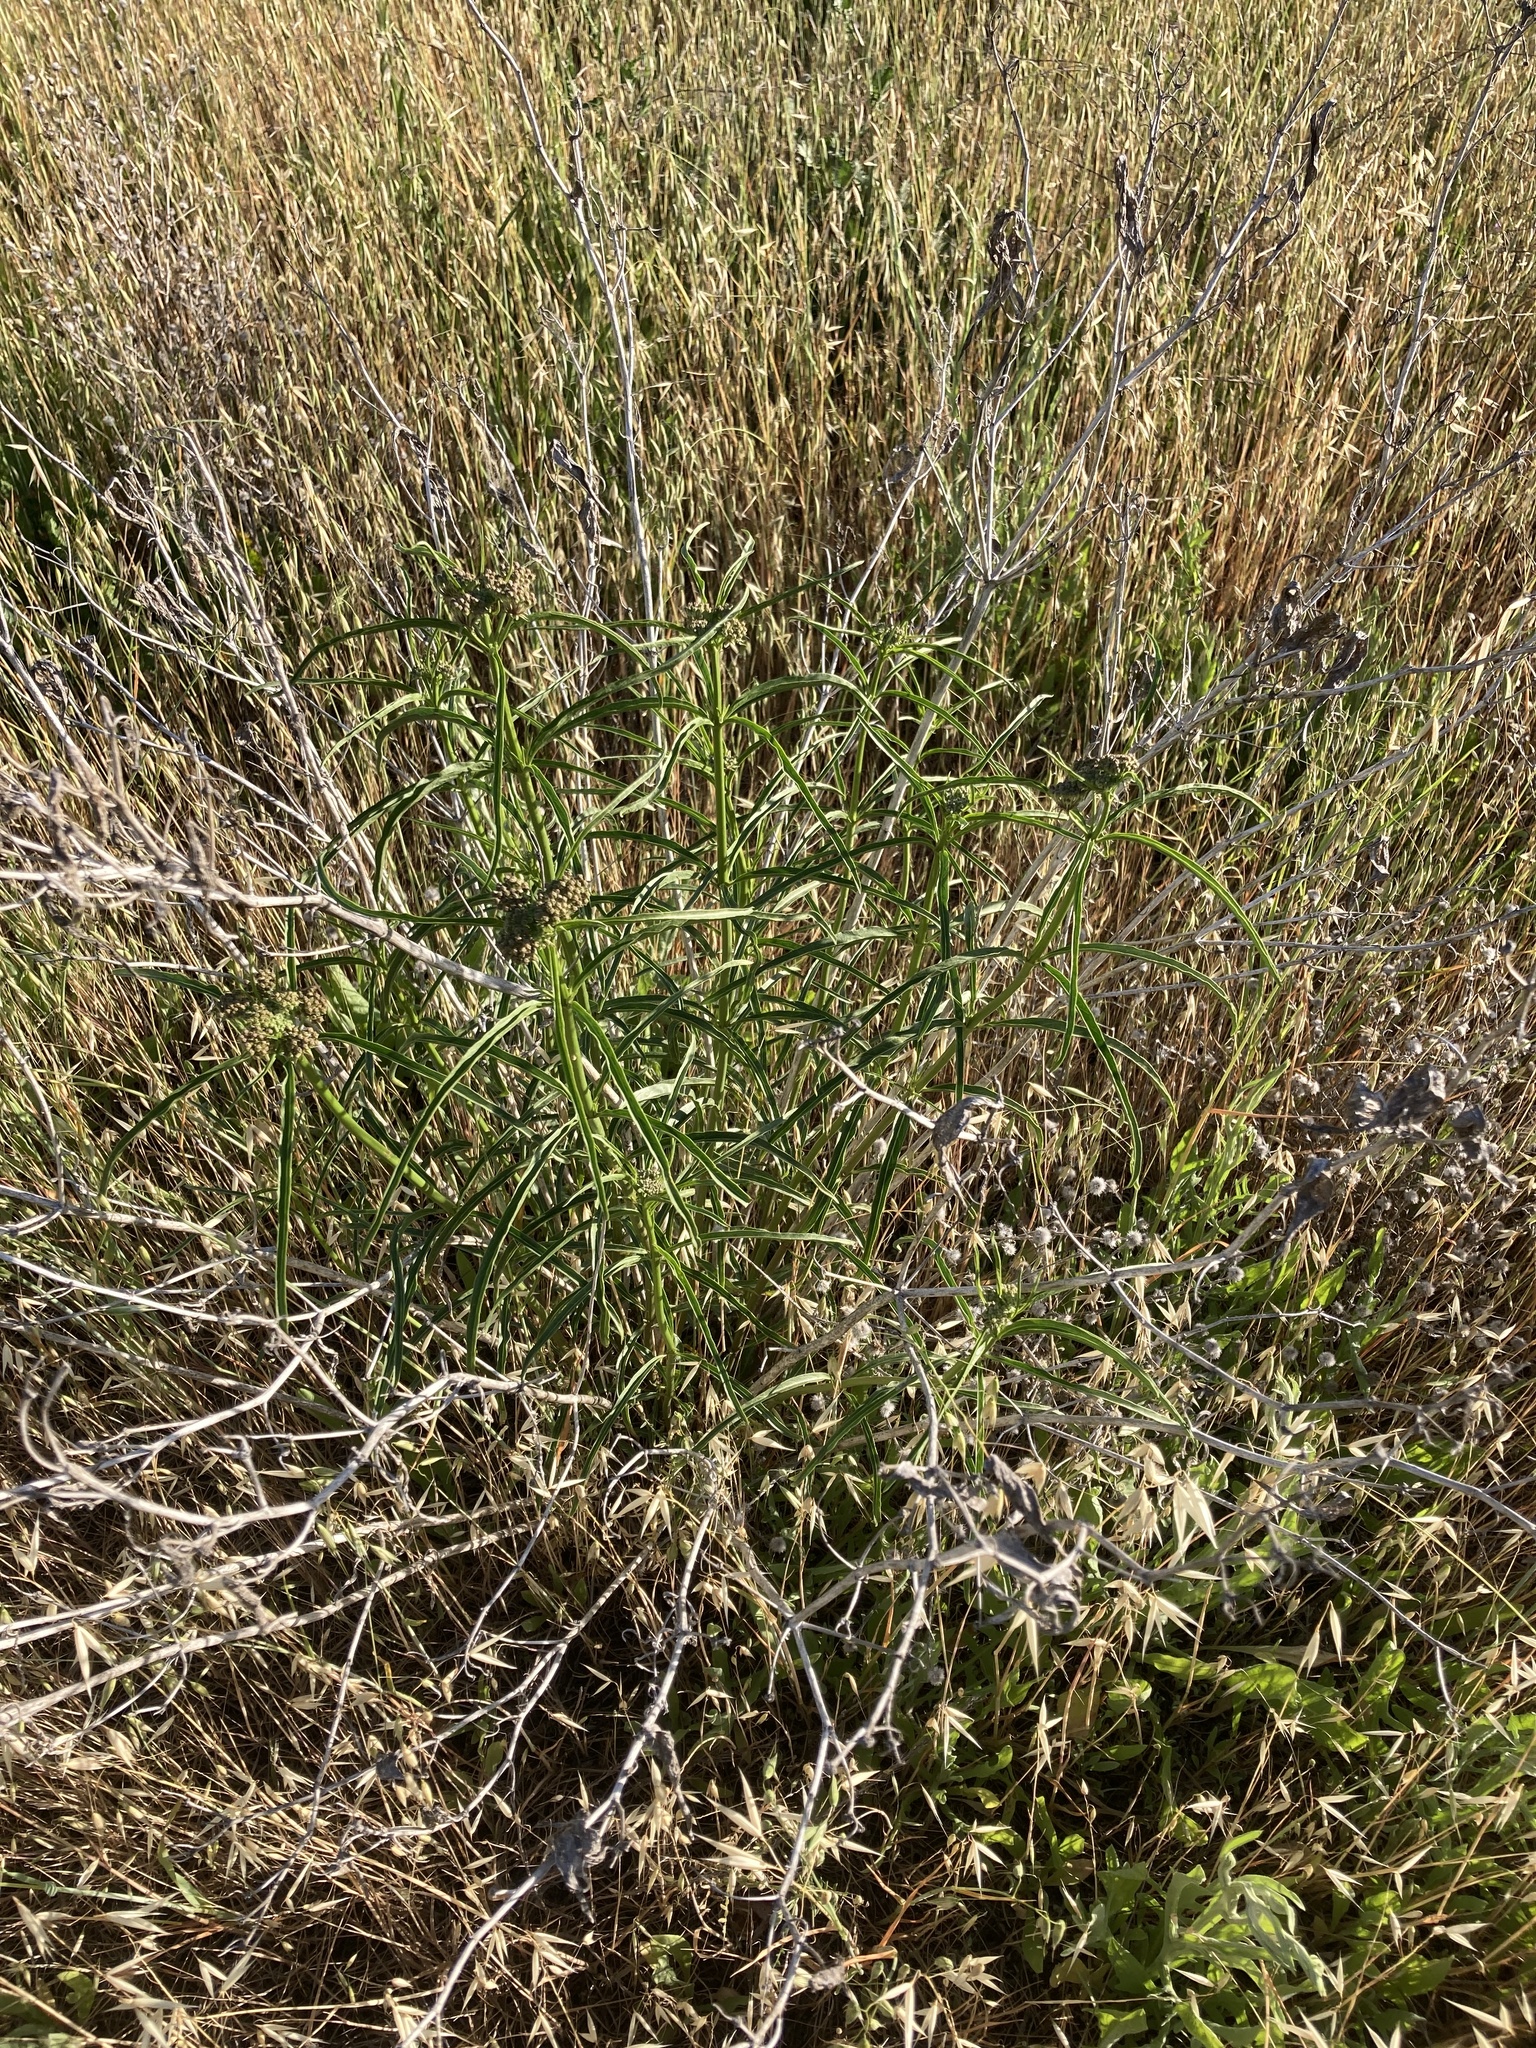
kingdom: Plantae
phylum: Tracheophyta
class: Magnoliopsida
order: Gentianales
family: Apocynaceae
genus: Asclepias
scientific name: Asclepias fascicularis
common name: Mexican milkweed
